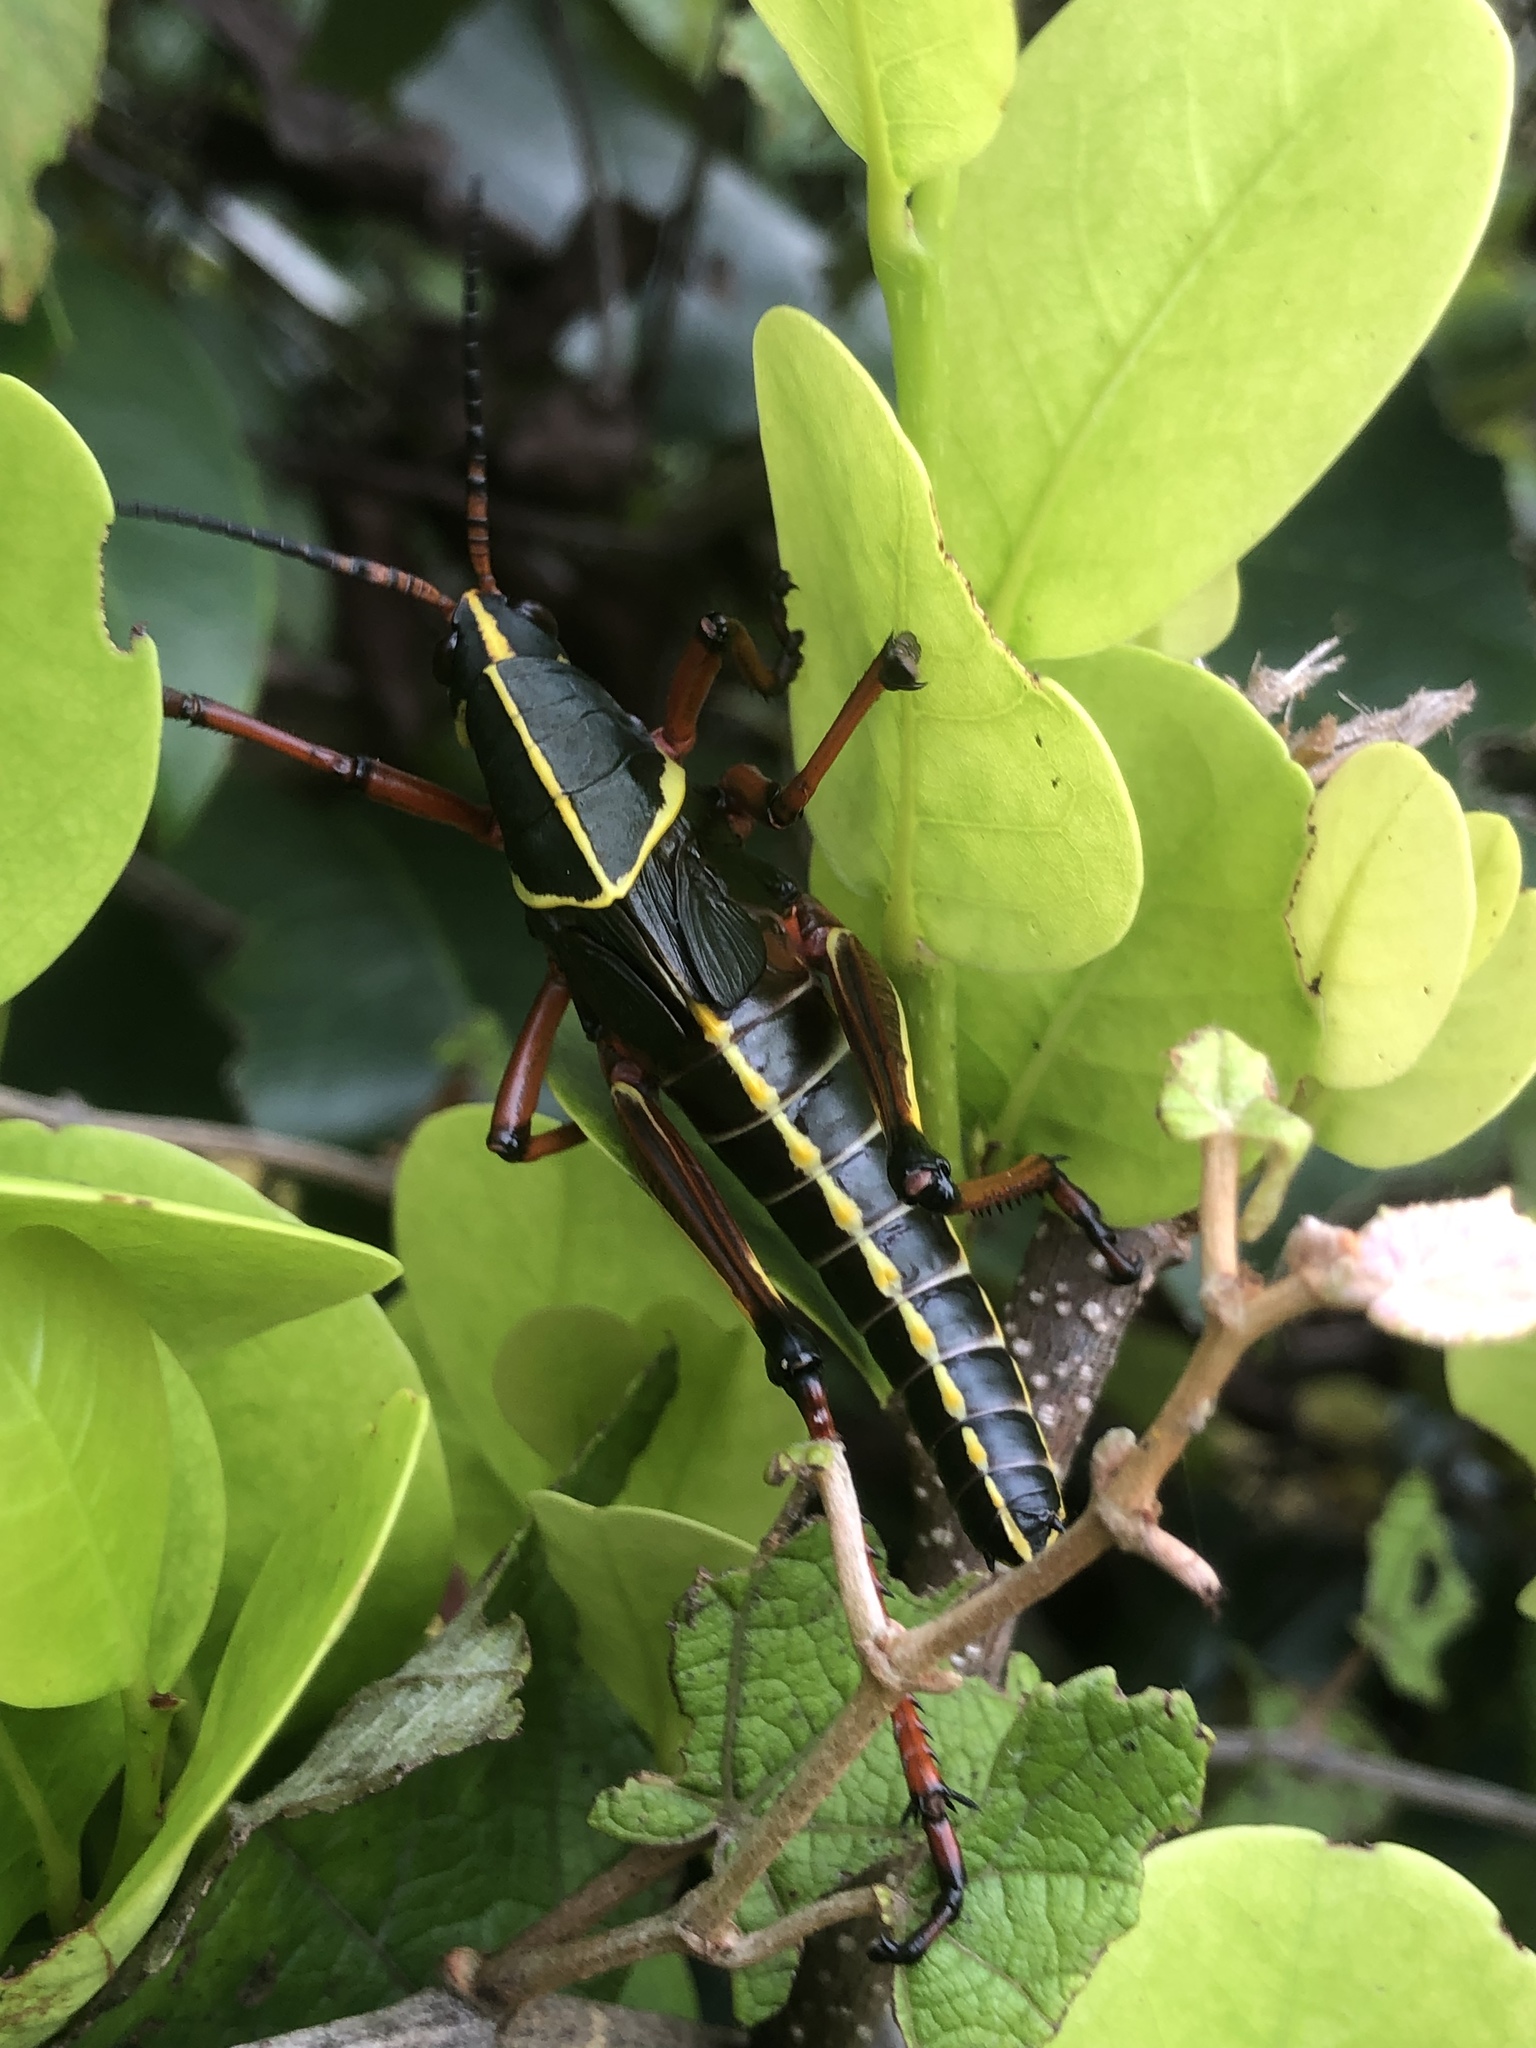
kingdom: Animalia
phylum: Arthropoda
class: Insecta
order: Orthoptera
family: Romaleidae
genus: Romalea
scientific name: Romalea microptera
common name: Eastern lubber grasshopper
